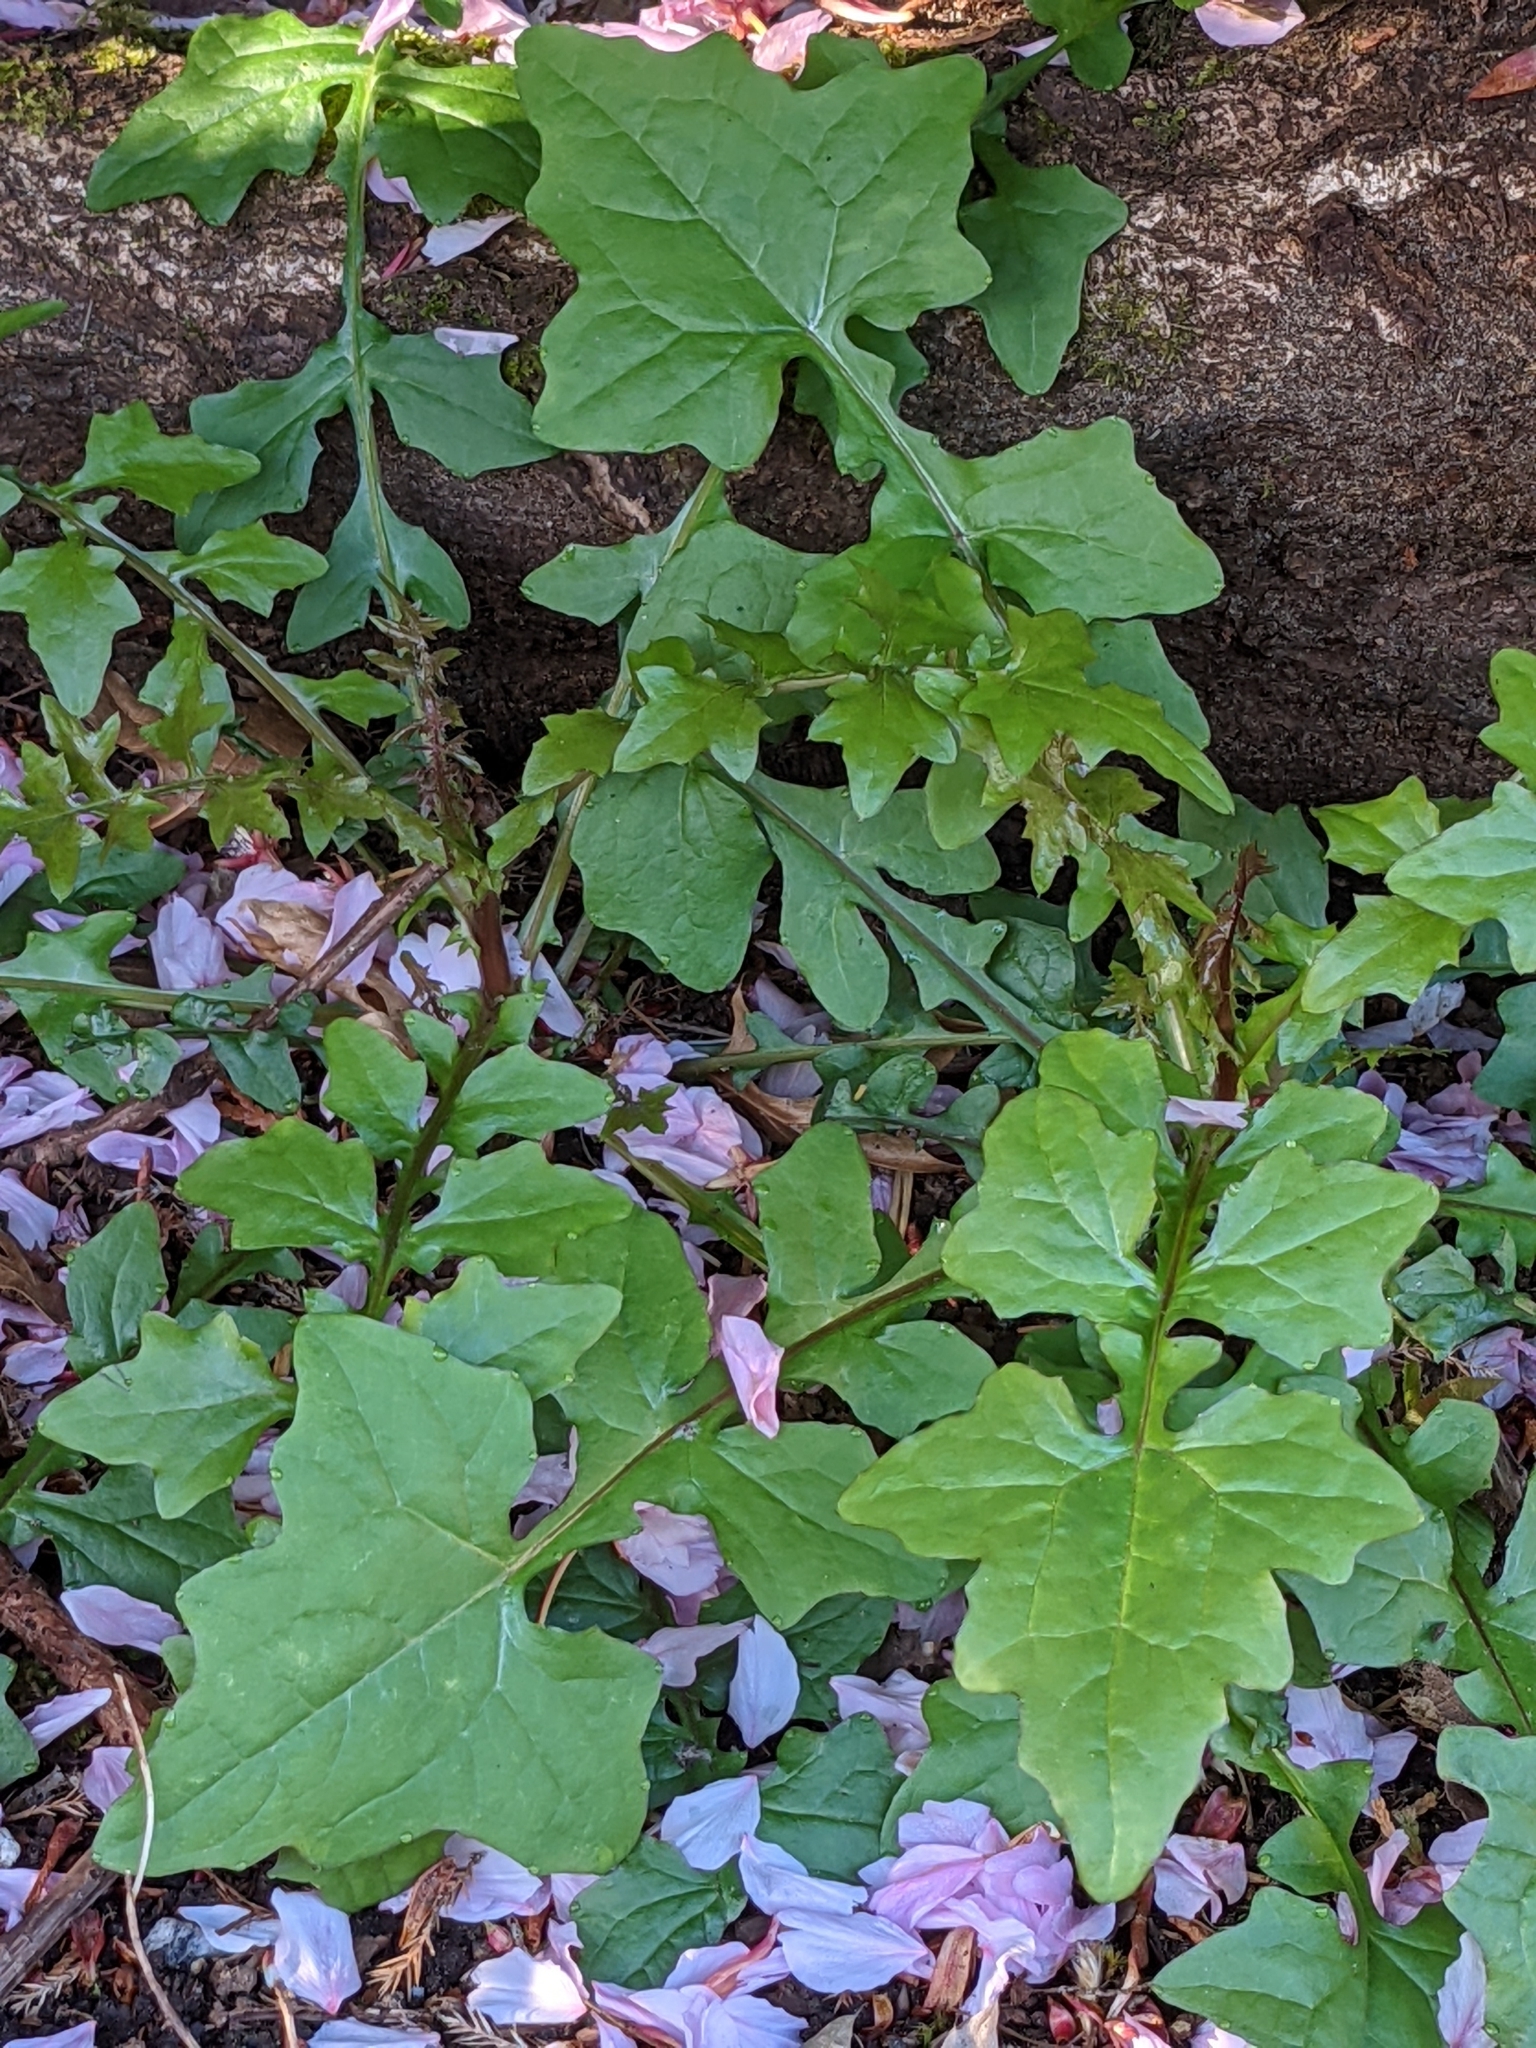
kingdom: Plantae
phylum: Tracheophyta
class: Magnoliopsida
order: Asterales
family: Asteraceae
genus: Mycelis
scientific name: Mycelis muralis
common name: Wall lettuce
